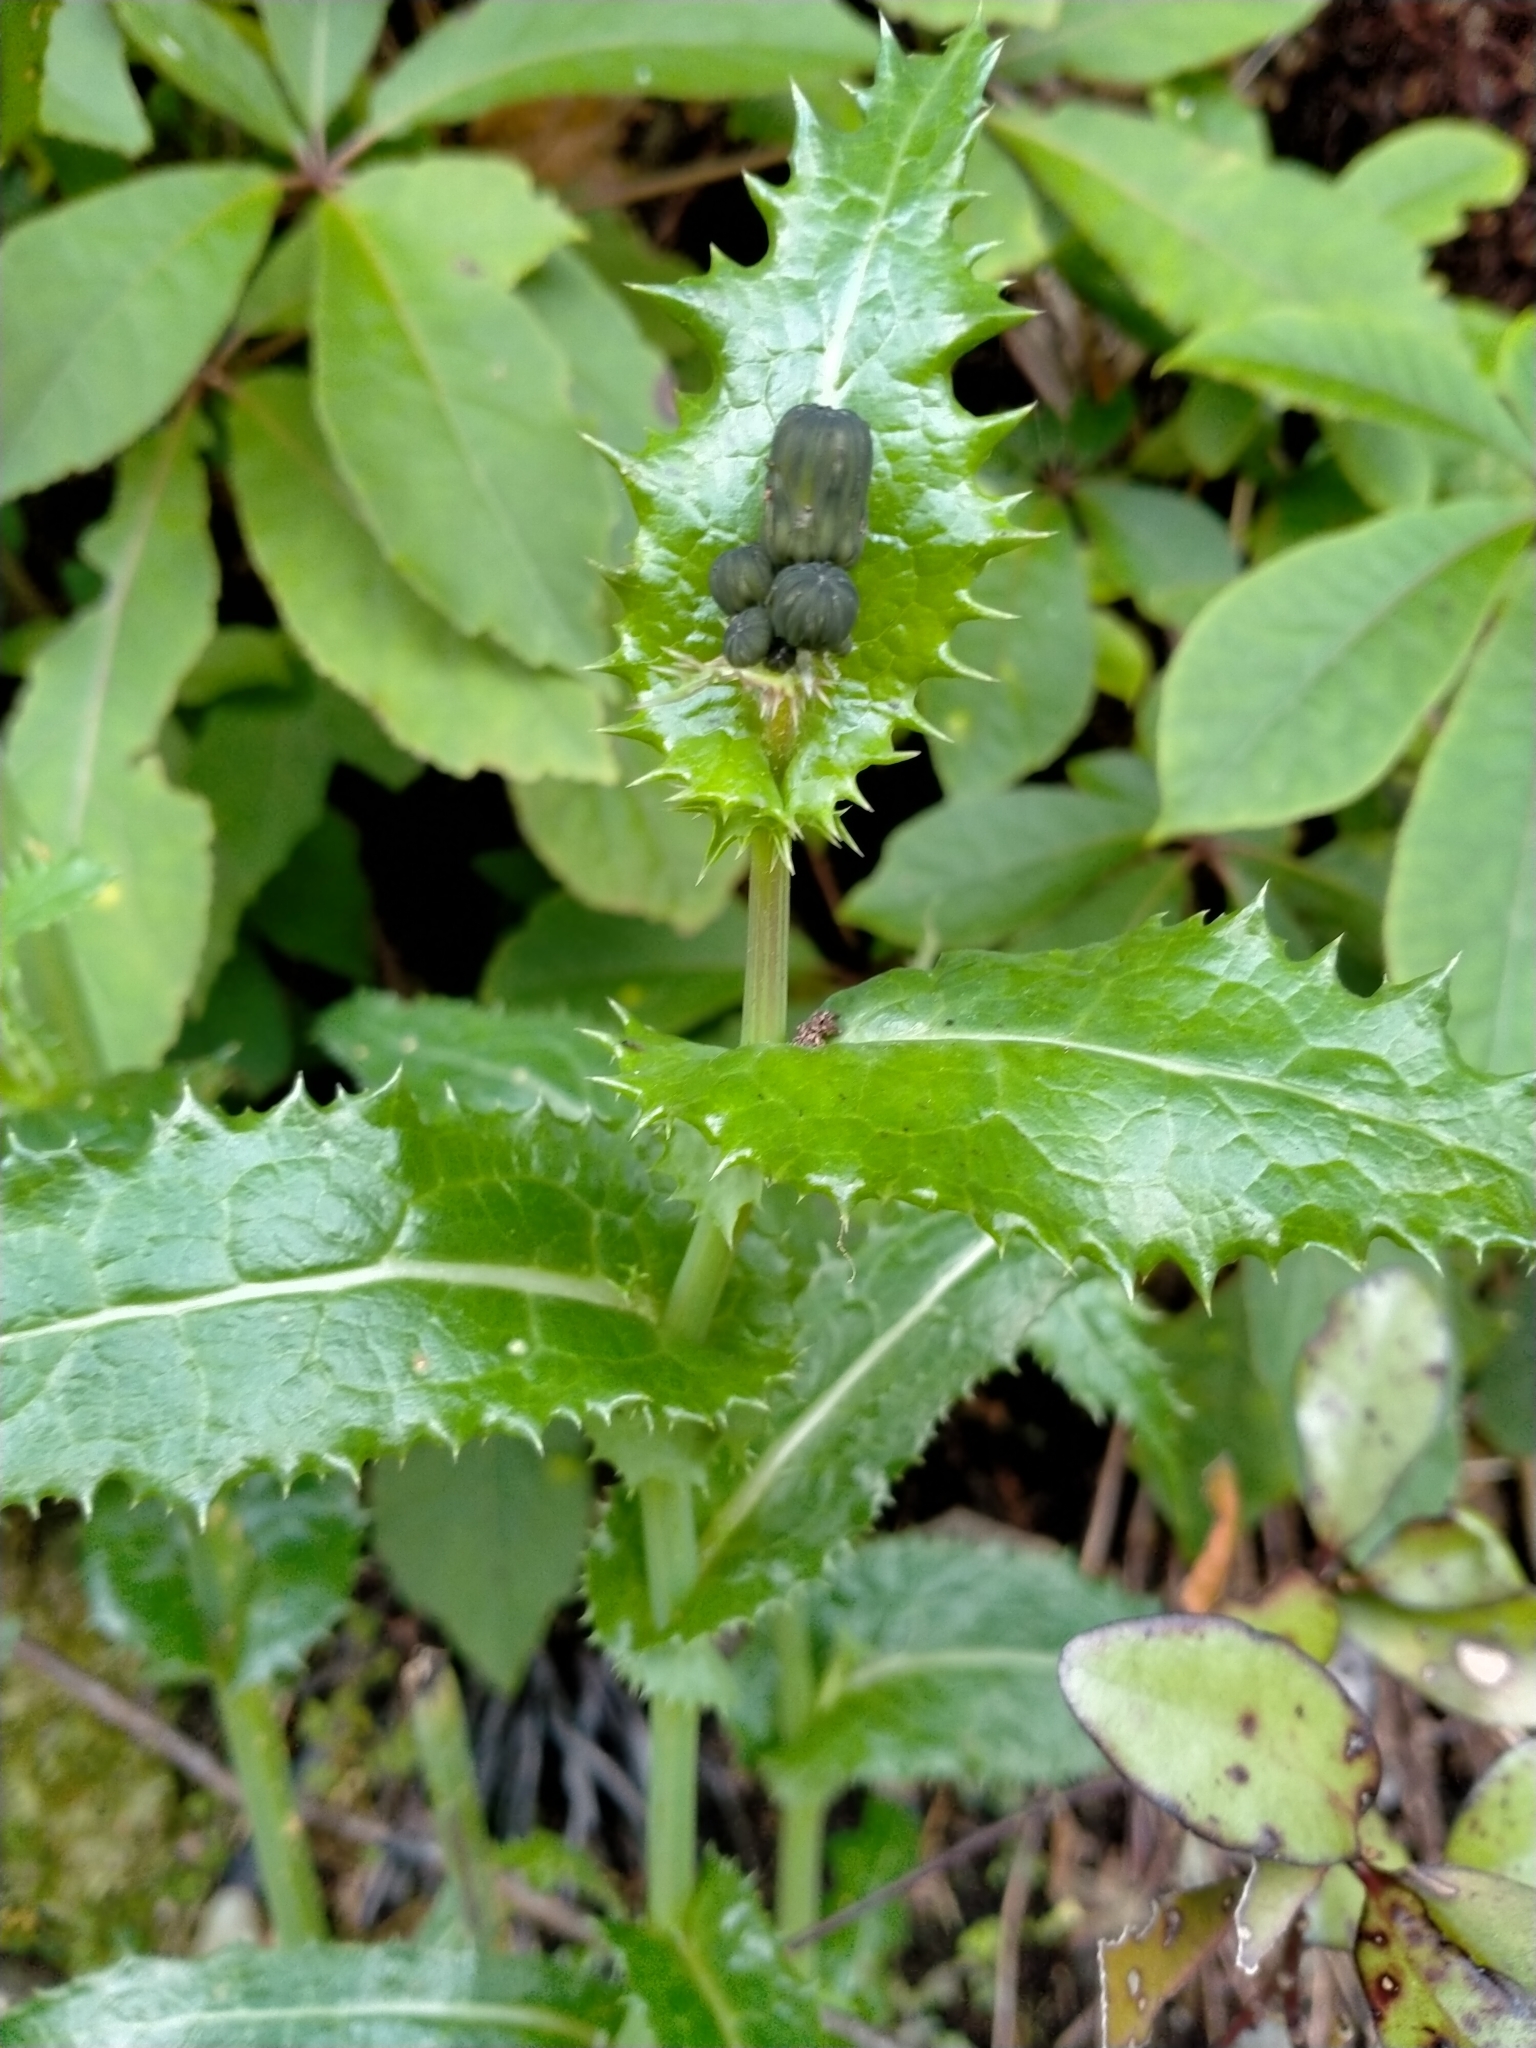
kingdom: Plantae
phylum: Tracheophyta
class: Magnoliopsida
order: Asterales
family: Asteraceae
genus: Sonchus
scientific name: Sonchus asper
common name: Prickly sow-thistle
